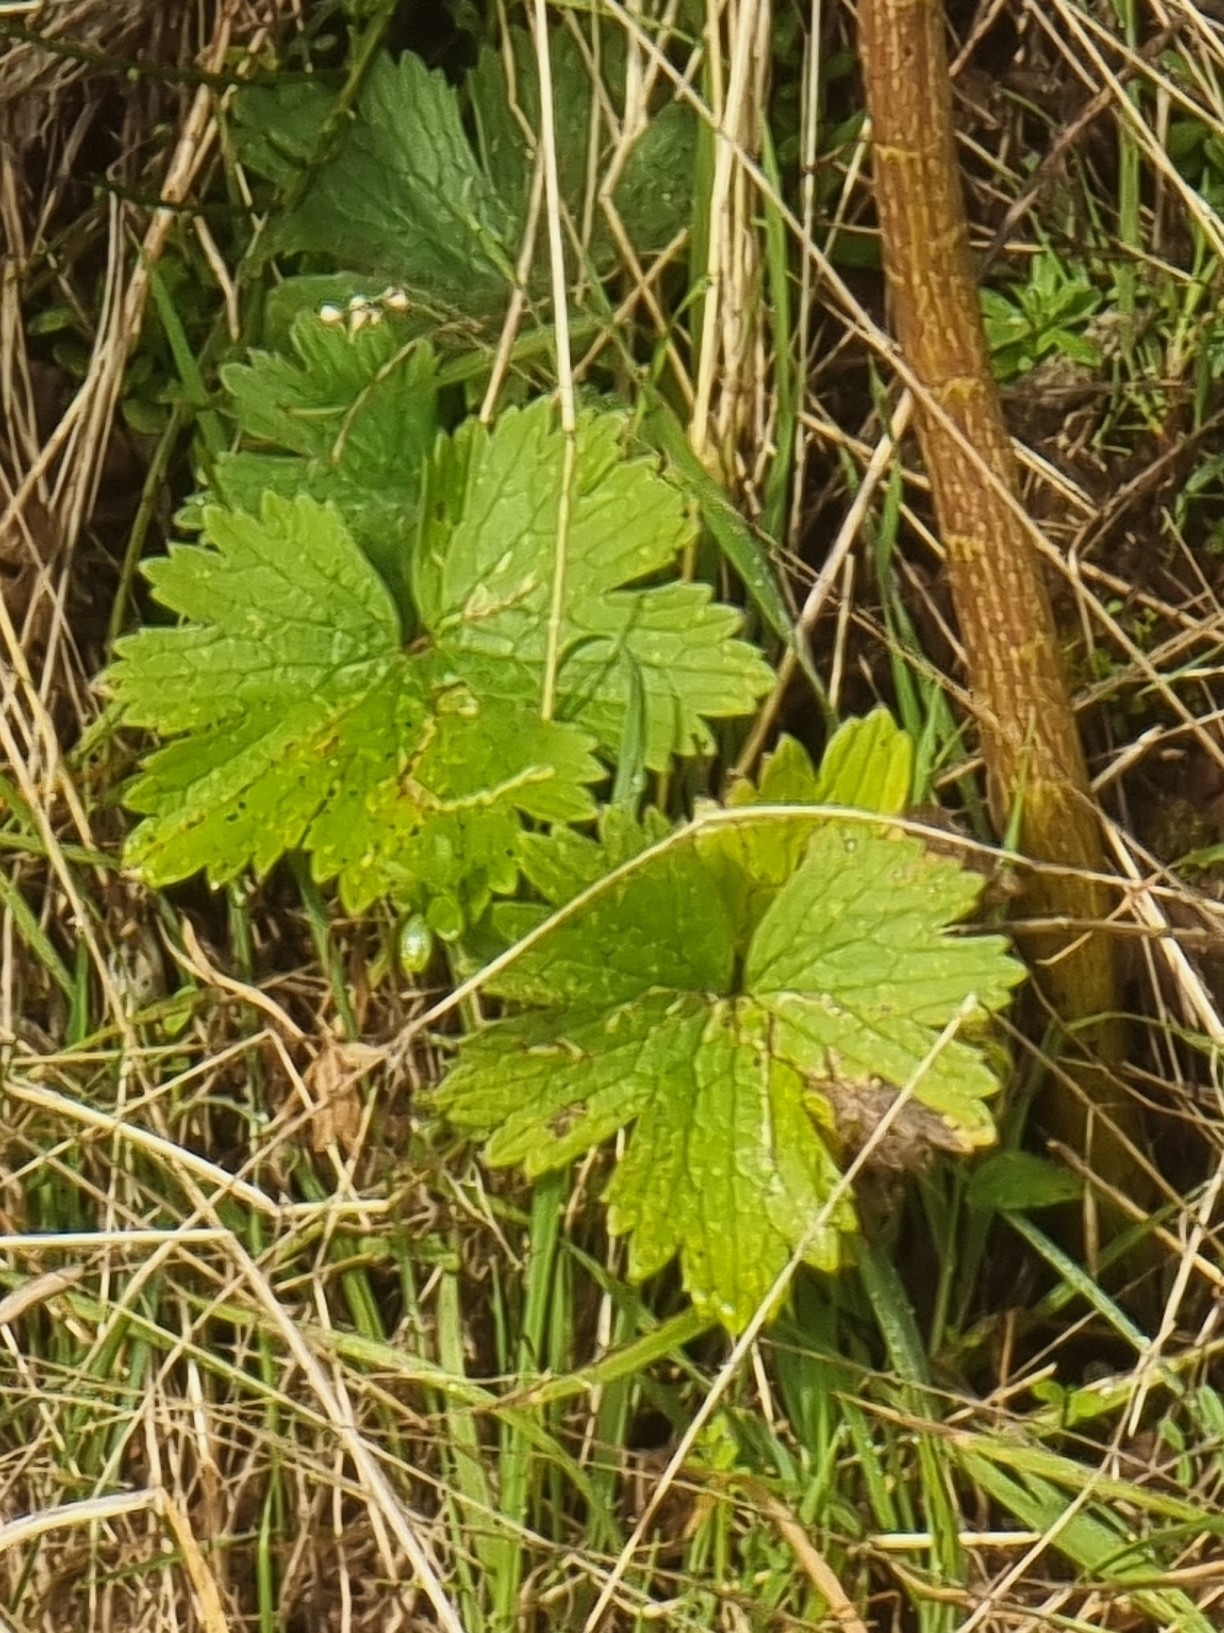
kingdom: Plantae
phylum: Tracheophyta
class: Magnoliopsida
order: Ranunculales
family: Ranunculaceae
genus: Ranunculus
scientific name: Ranunculus cortusifolius
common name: Azores buttercup
